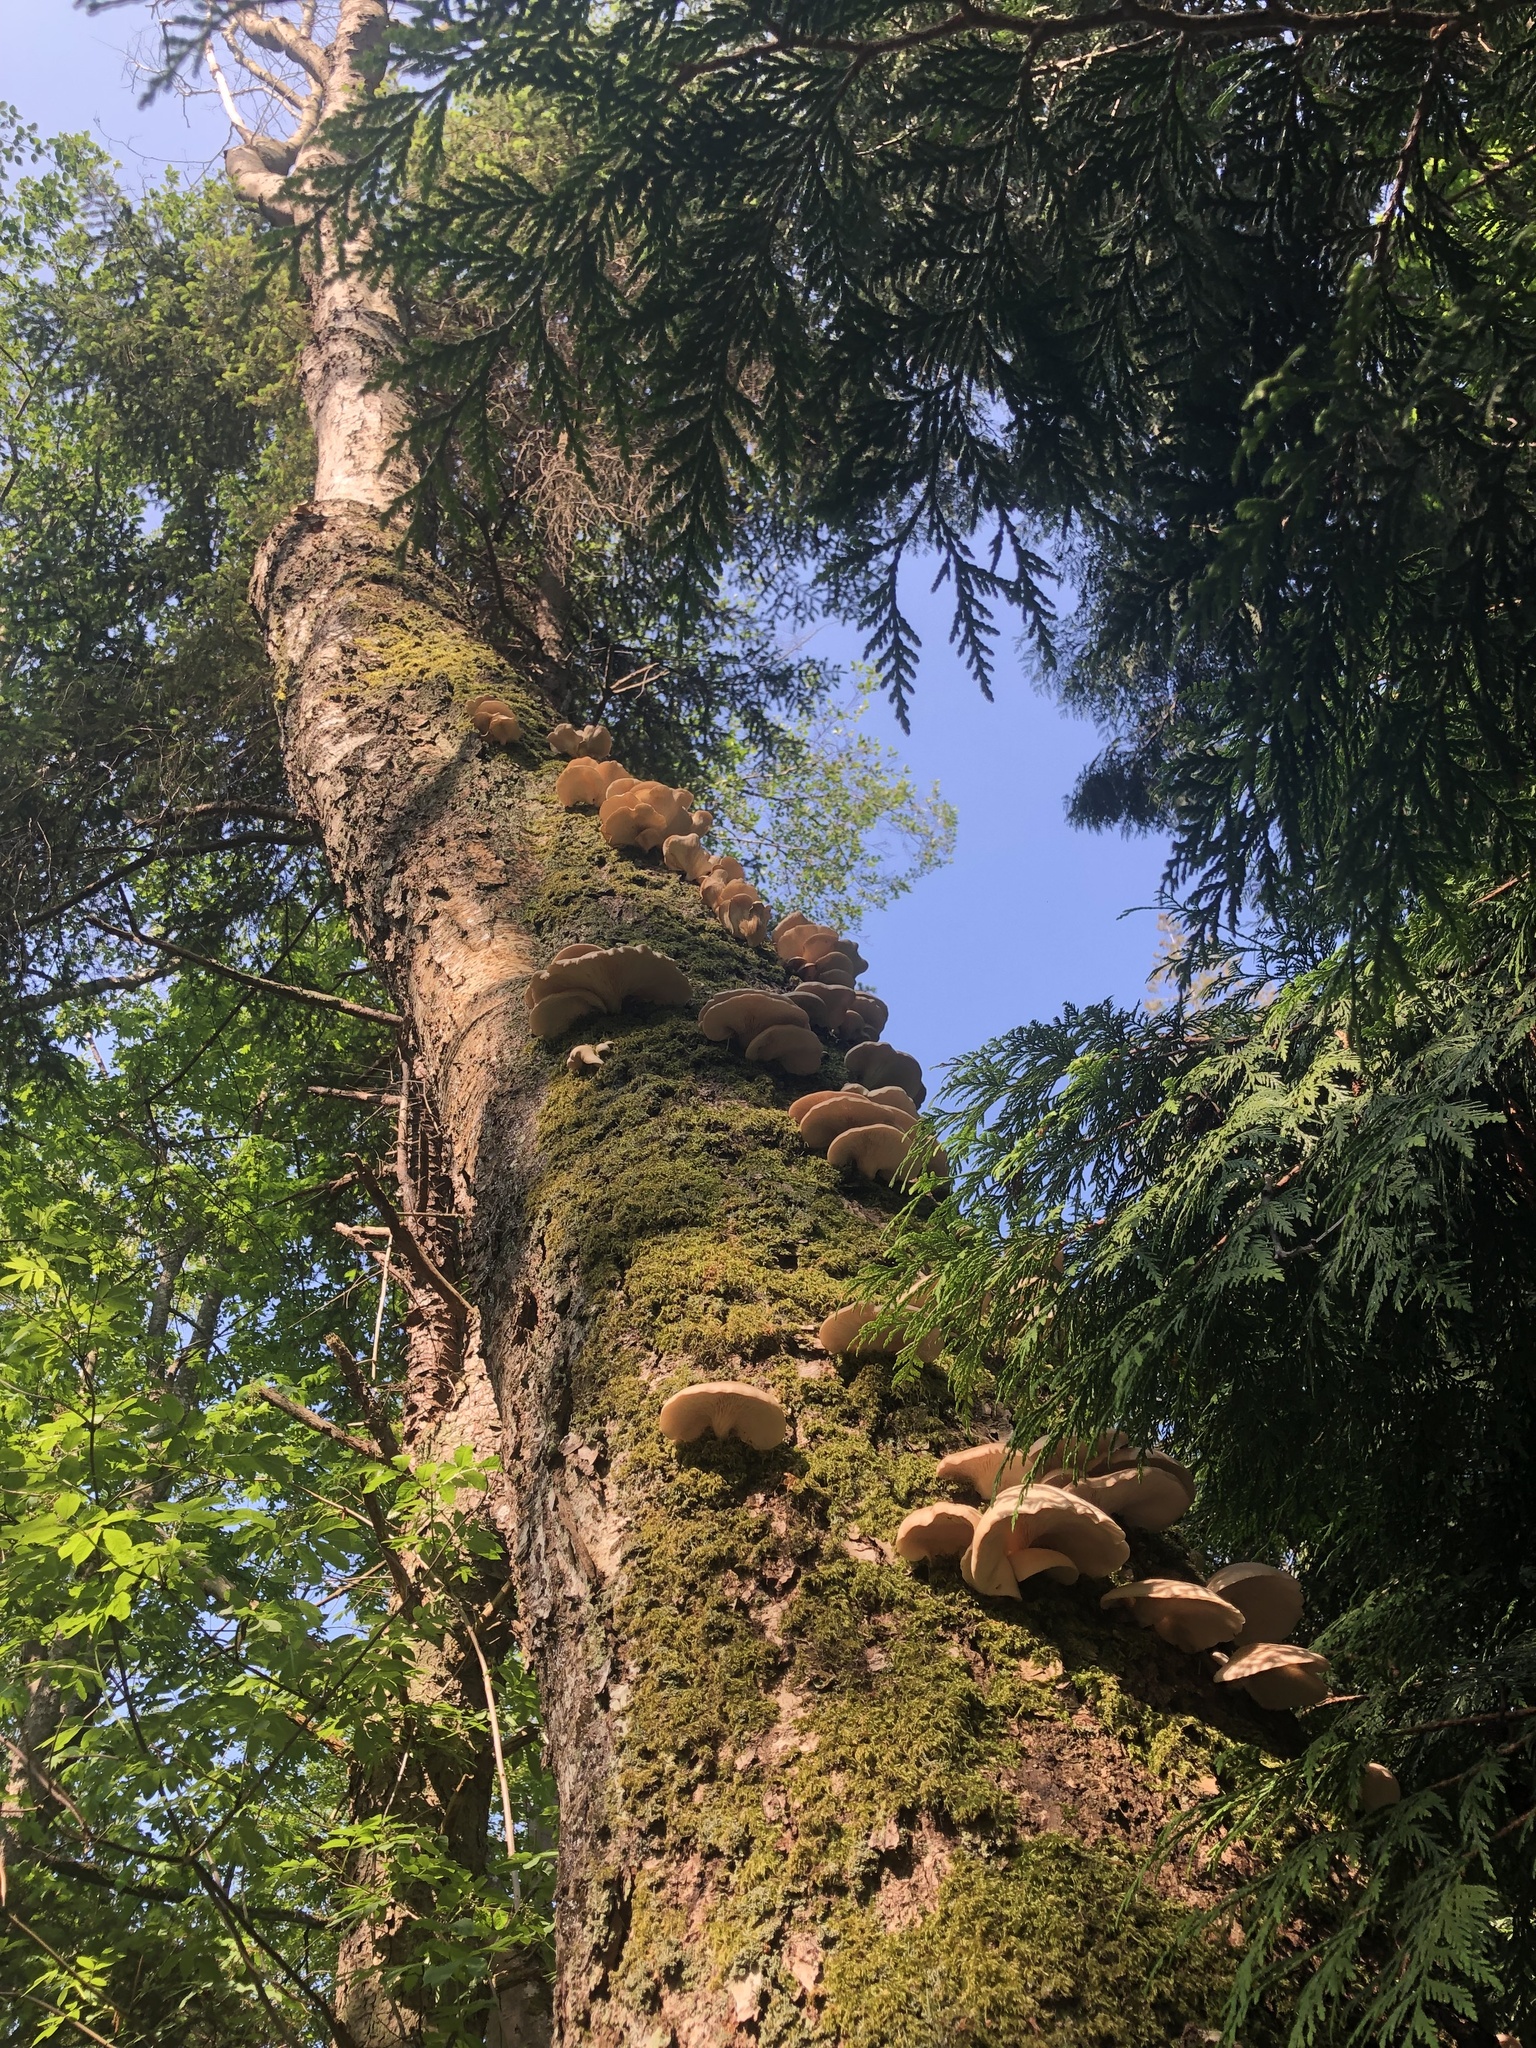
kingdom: Fungi
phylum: Basidiomycota
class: Agaricomycetes
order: Agaricales
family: Pleurotaceae
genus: Pleurotus
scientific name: Pleurotus pulmonarius
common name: Pale oyster
